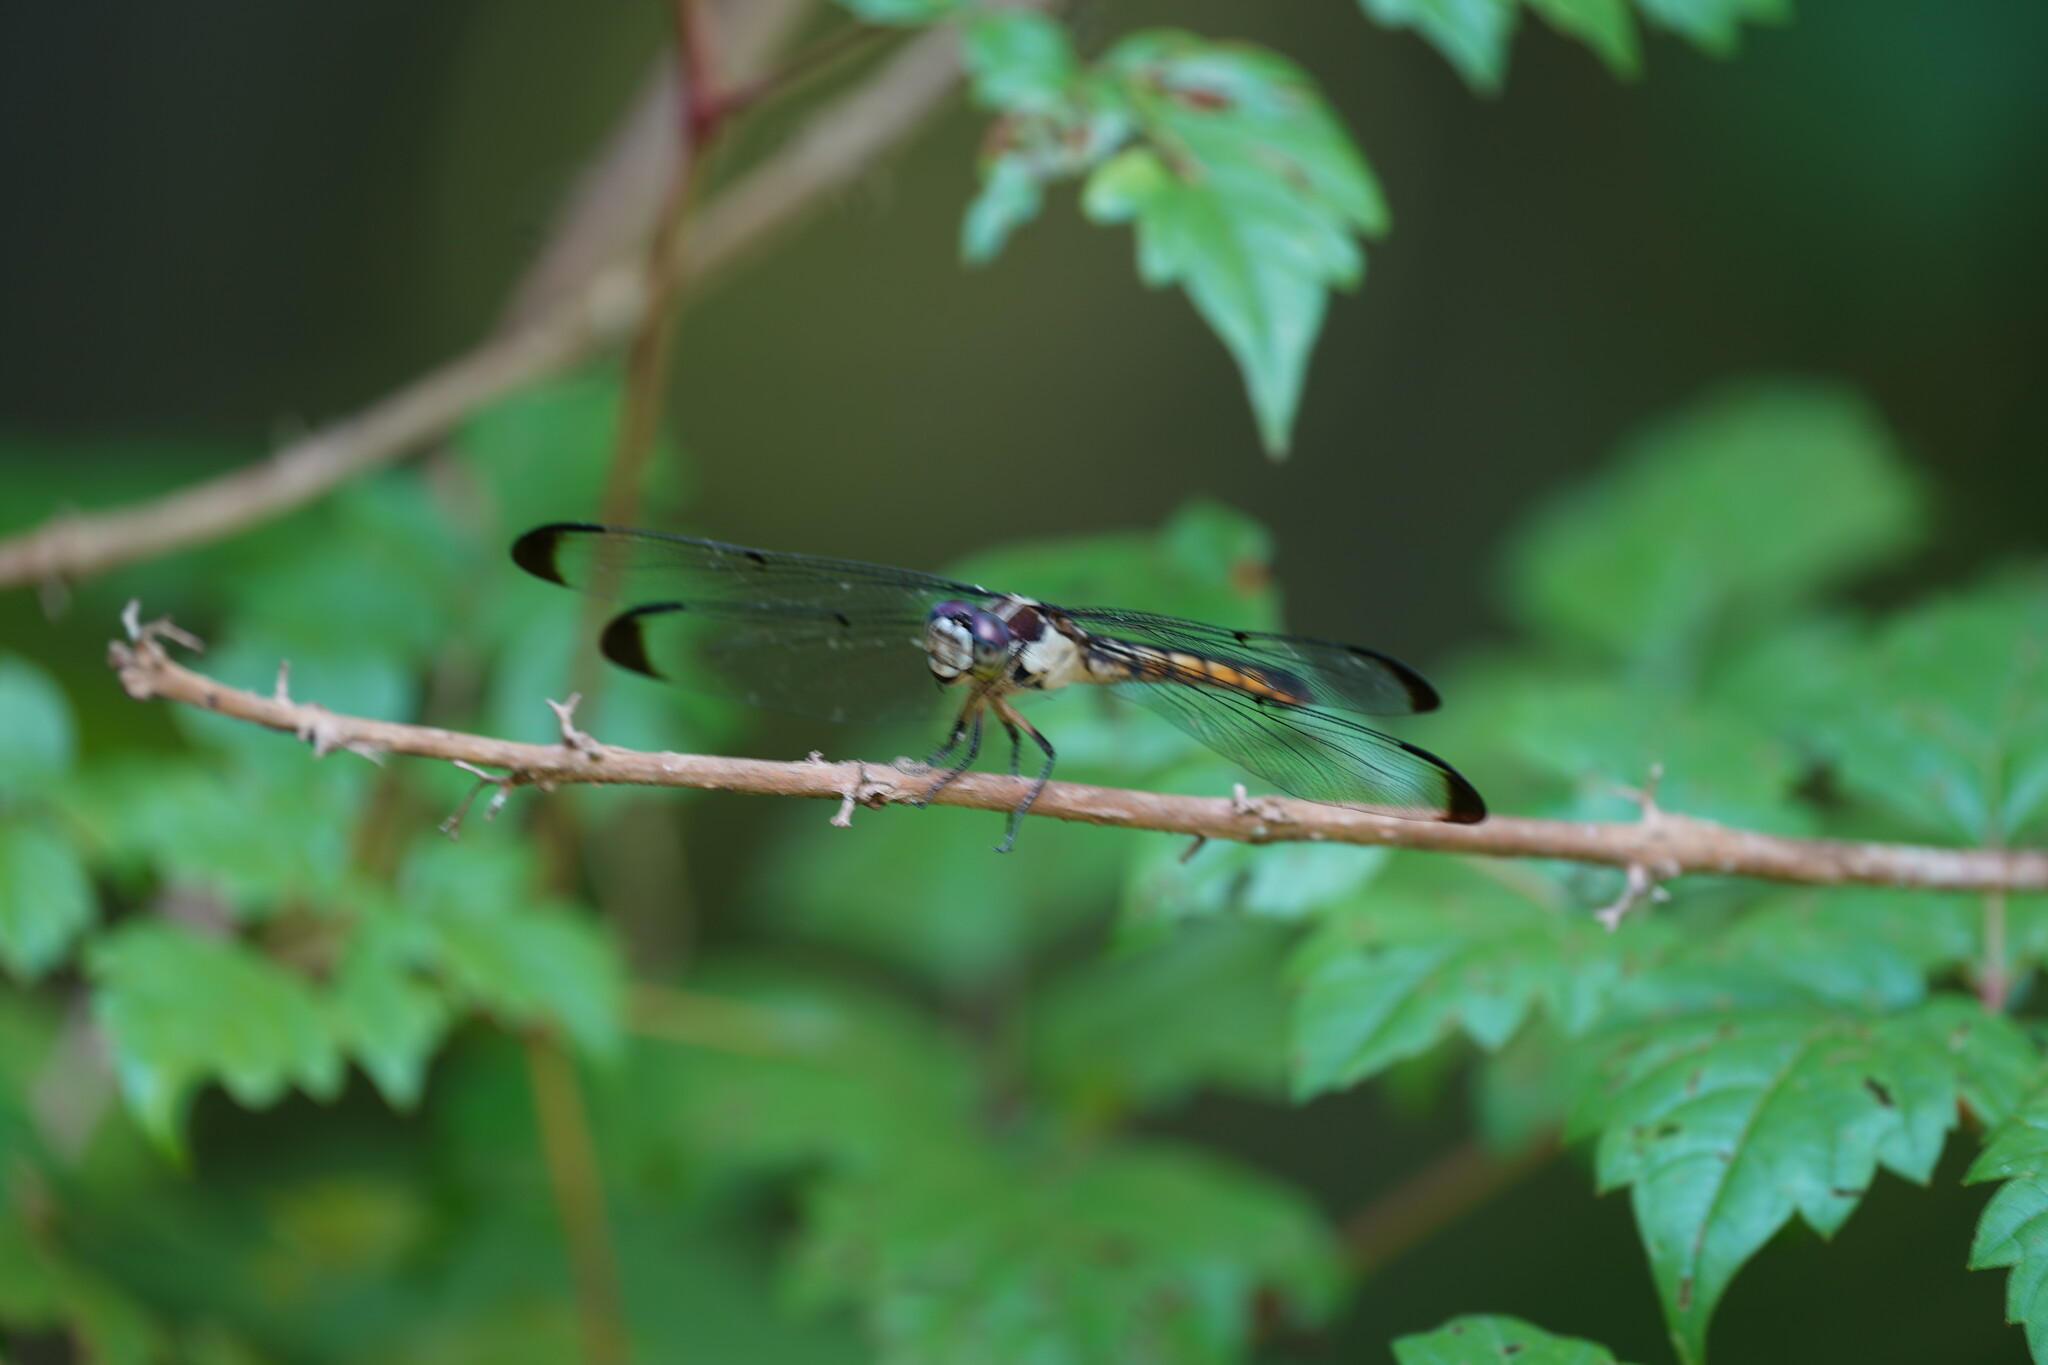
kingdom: Animalia
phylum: Arthropoda
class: Insecta
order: Odonata
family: Libellulidae
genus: Libellula
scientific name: Libellula vibrans
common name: Great blue skimmer
